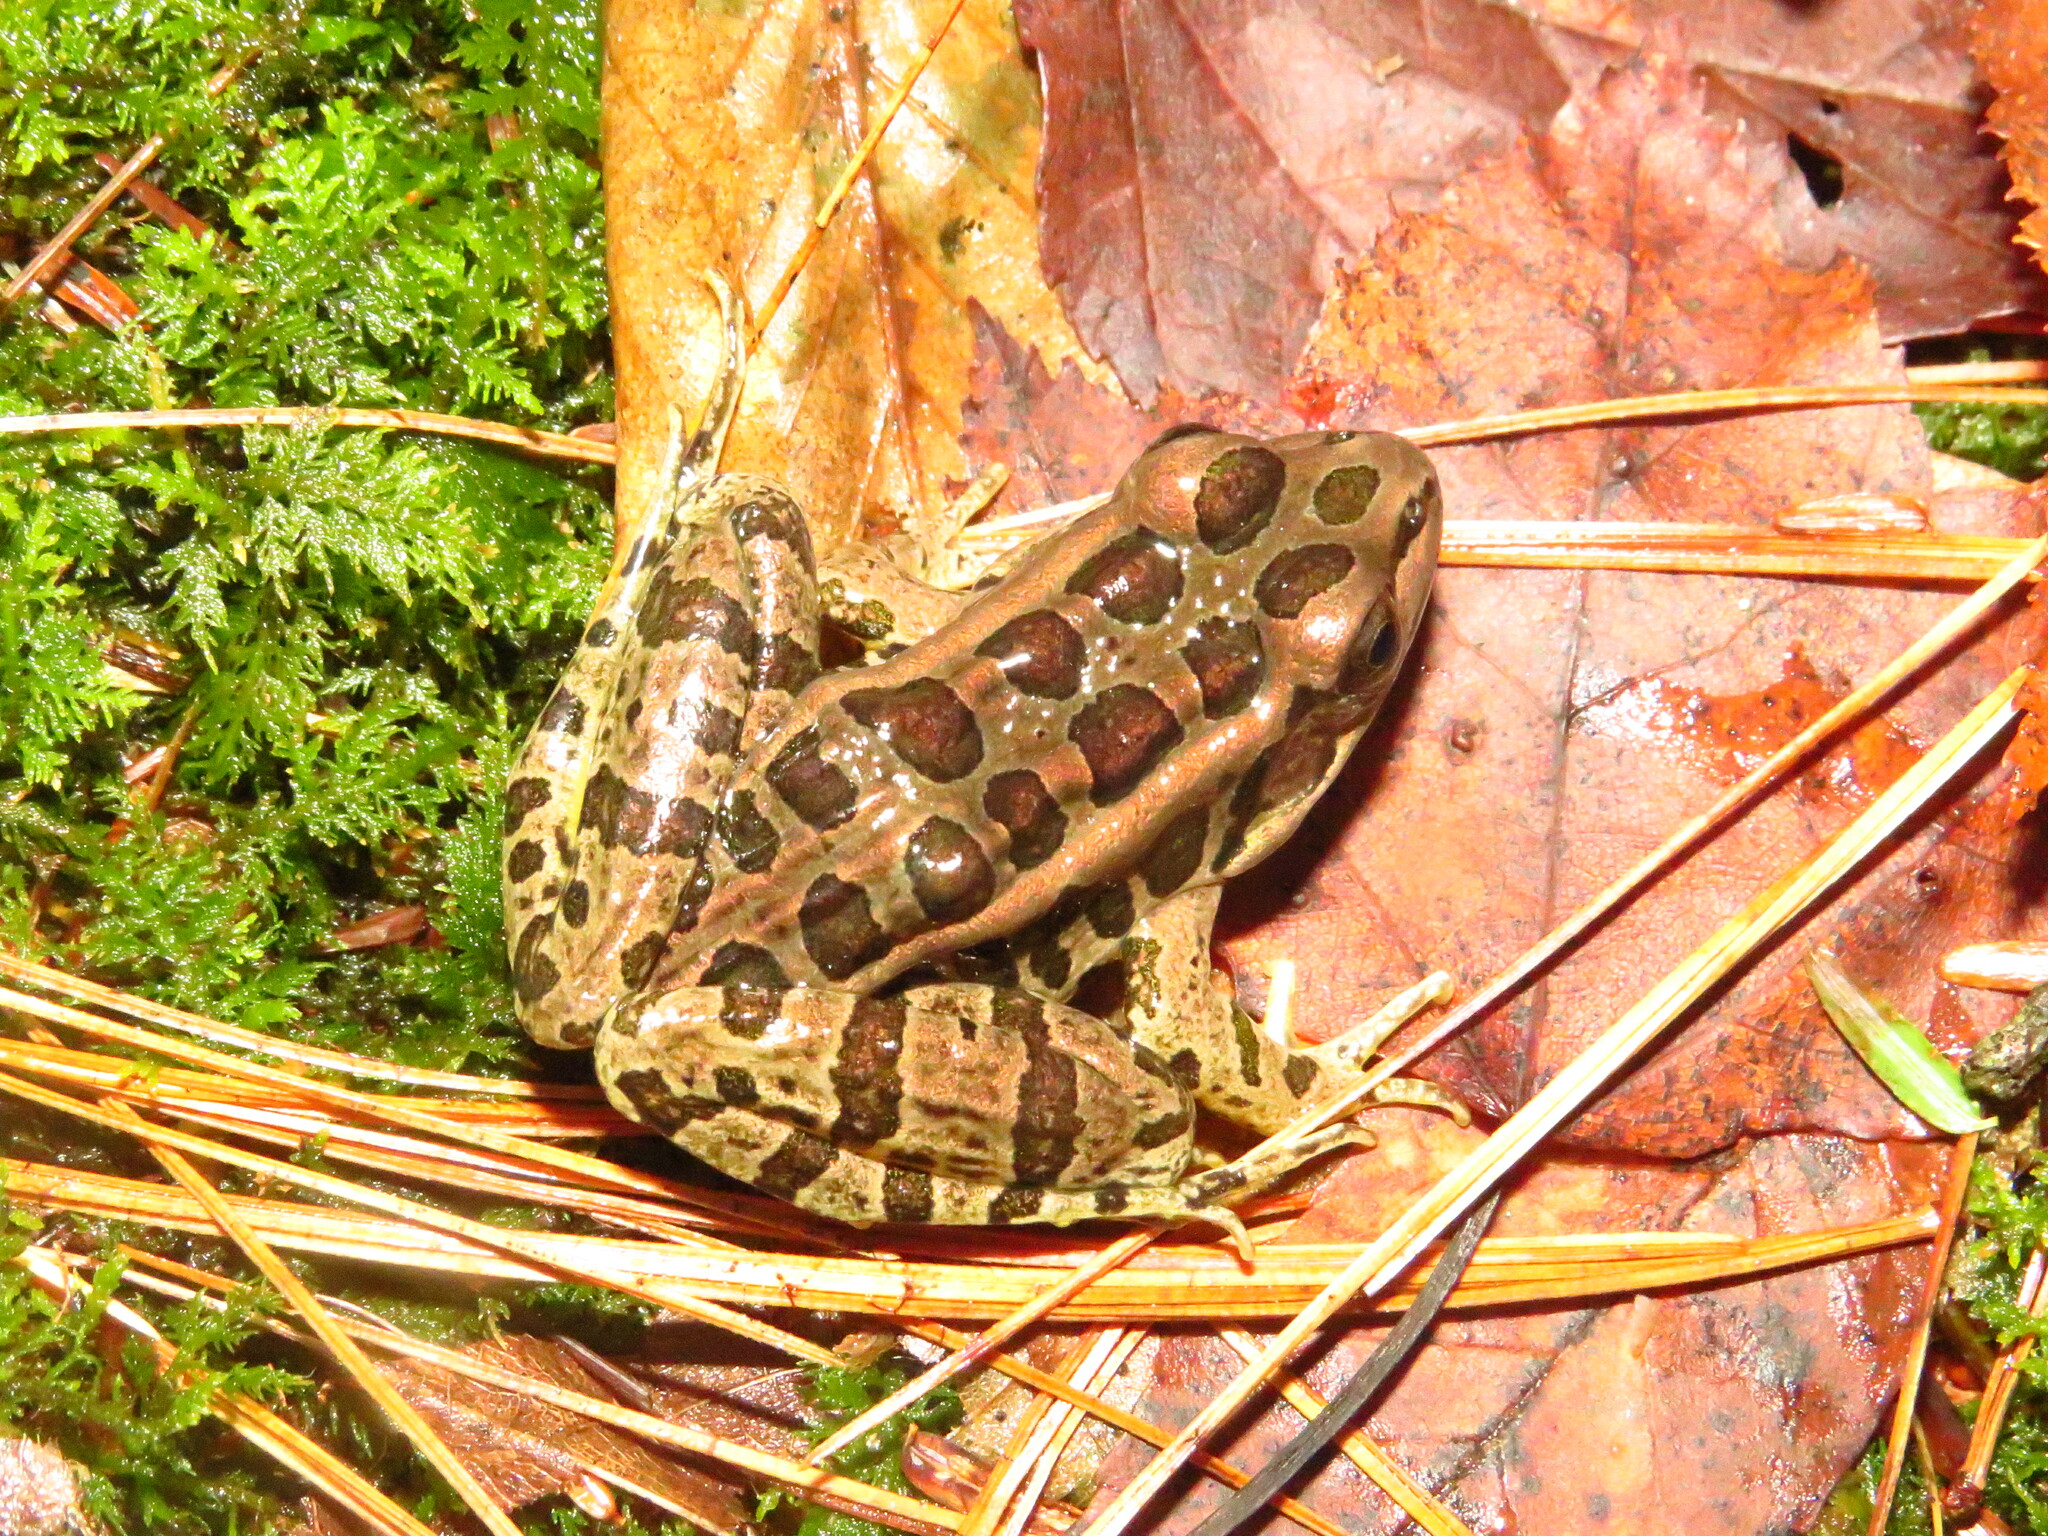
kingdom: Animalia
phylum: Chordata
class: Amphibia
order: Anura
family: Ranidae
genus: Lithobates
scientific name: Lithobates palustris
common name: Pickerel frog
